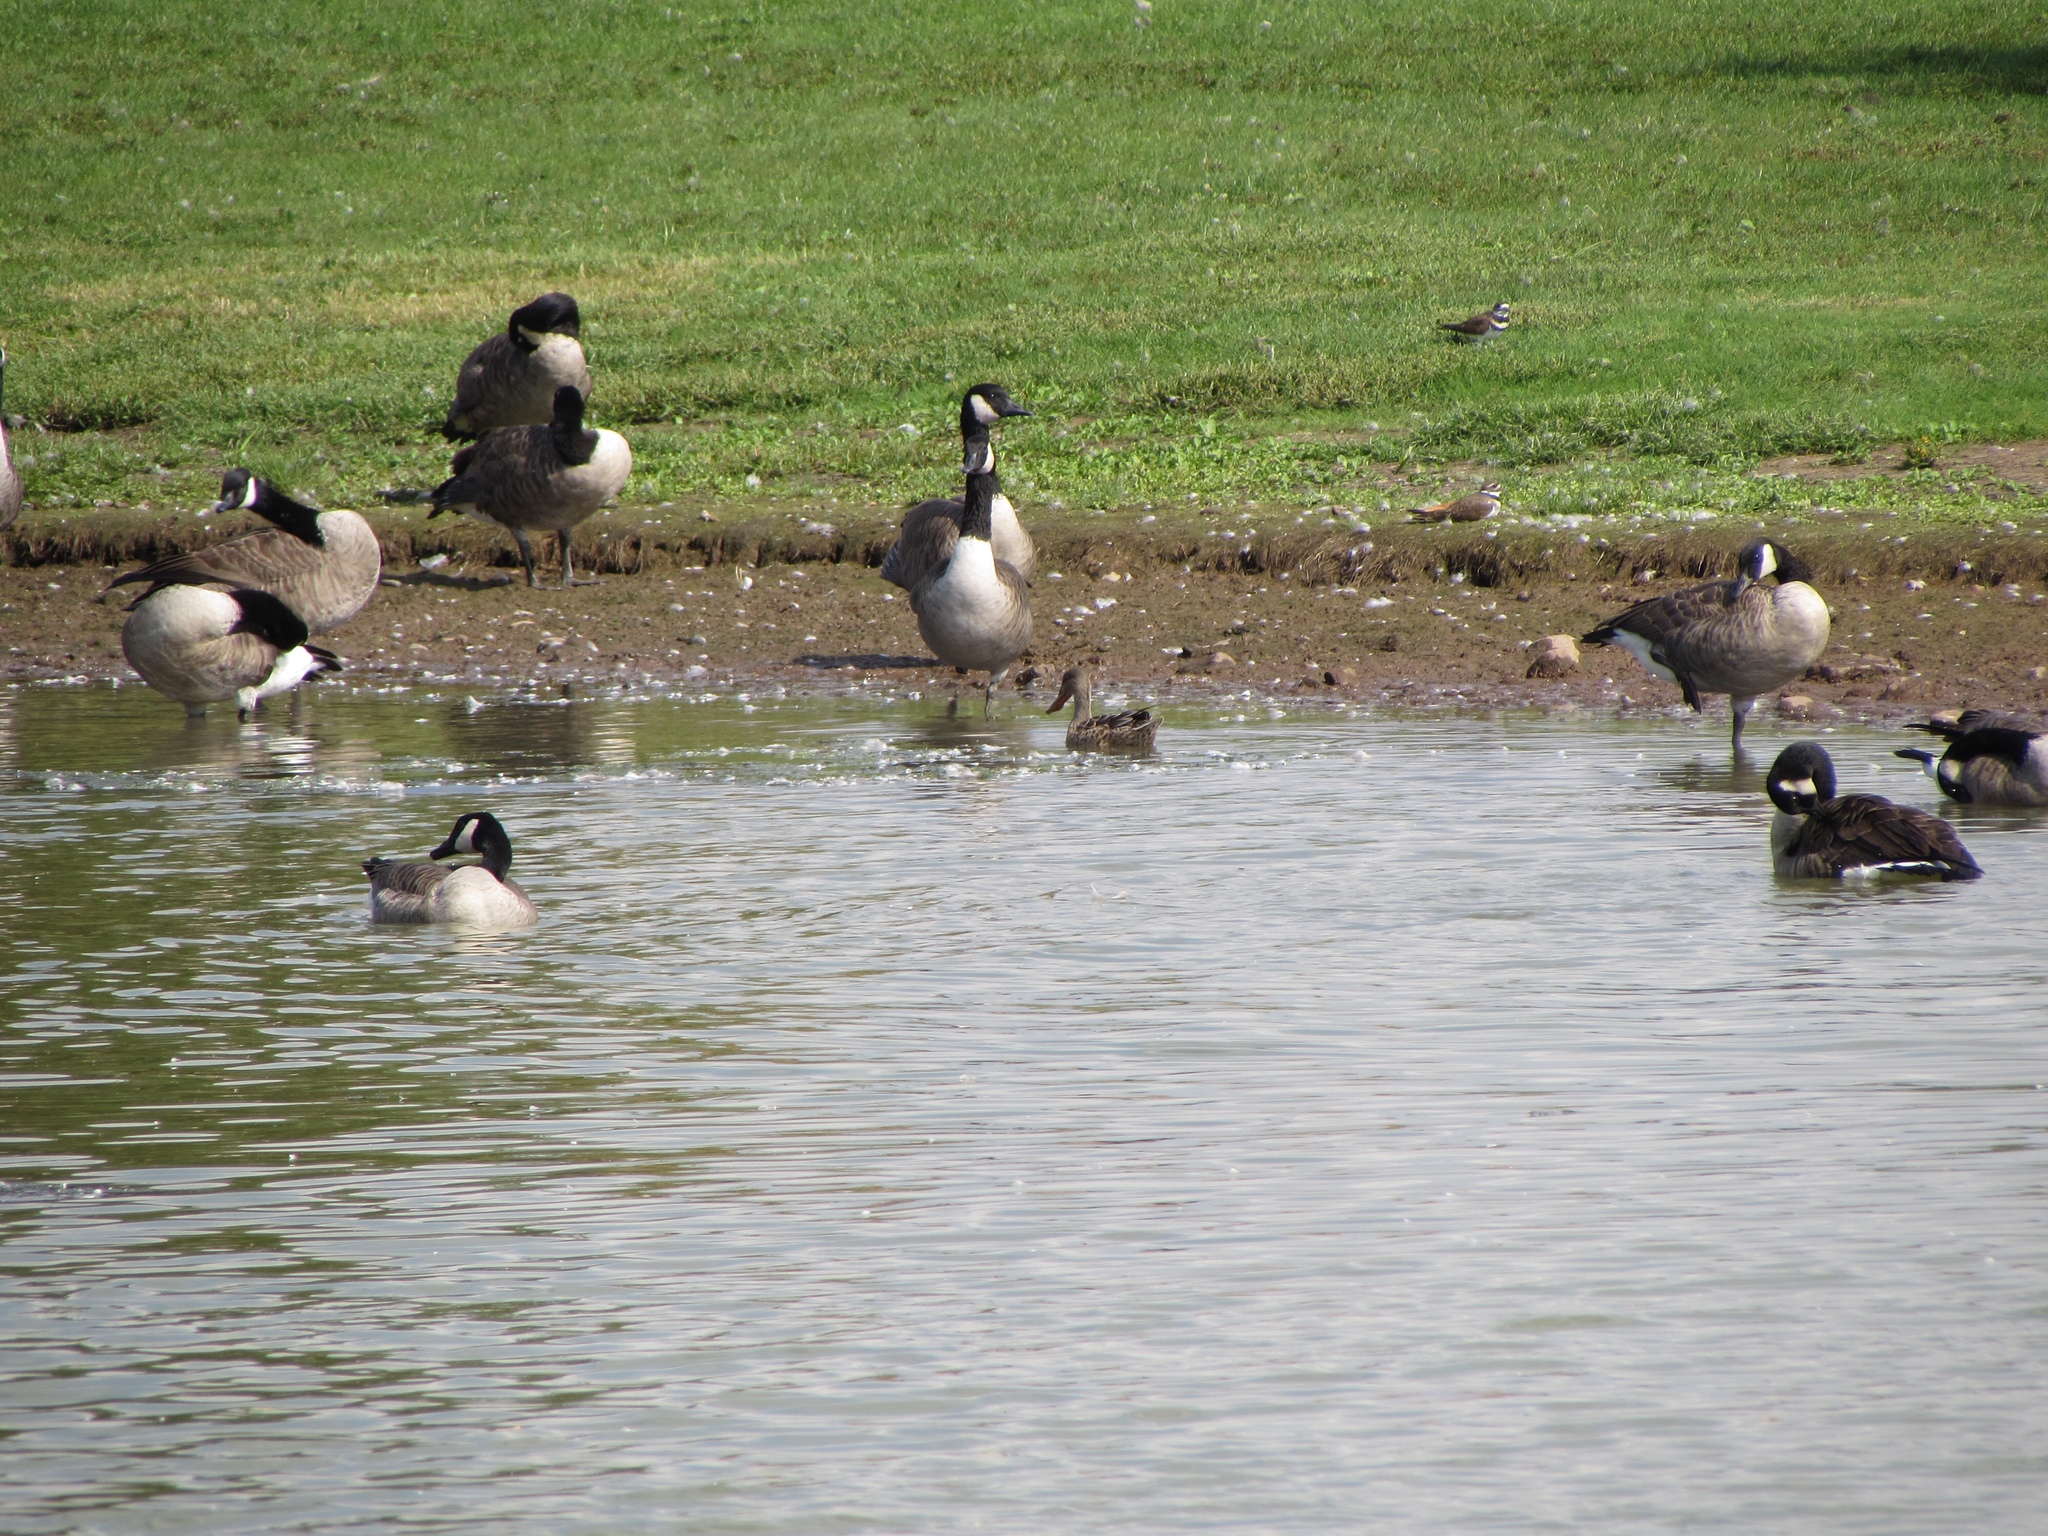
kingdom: Animalia
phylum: Chordata
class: Aves
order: Anseriformes
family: Anatidae
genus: Spatula
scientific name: Spatula clypeata
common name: Northern shoveler
